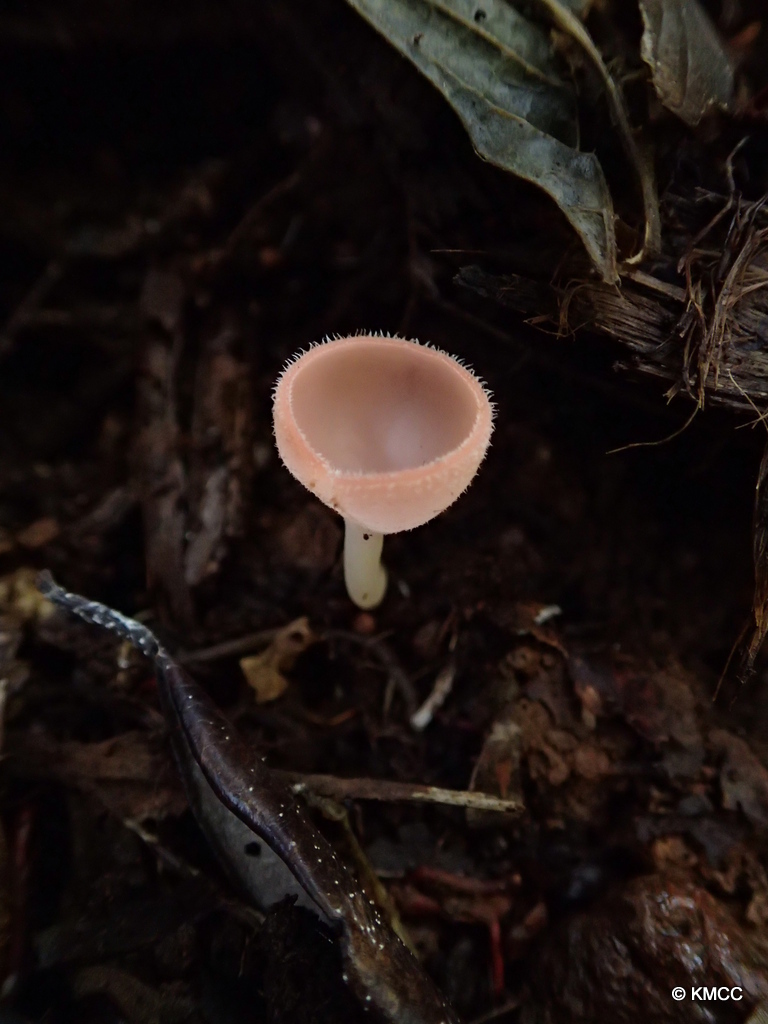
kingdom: Fungi
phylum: Ascomycota
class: Pezizomycetes
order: Pezizales
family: Sarcoscyphaceae
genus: Cookeina
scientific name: Cookeina speciosa
